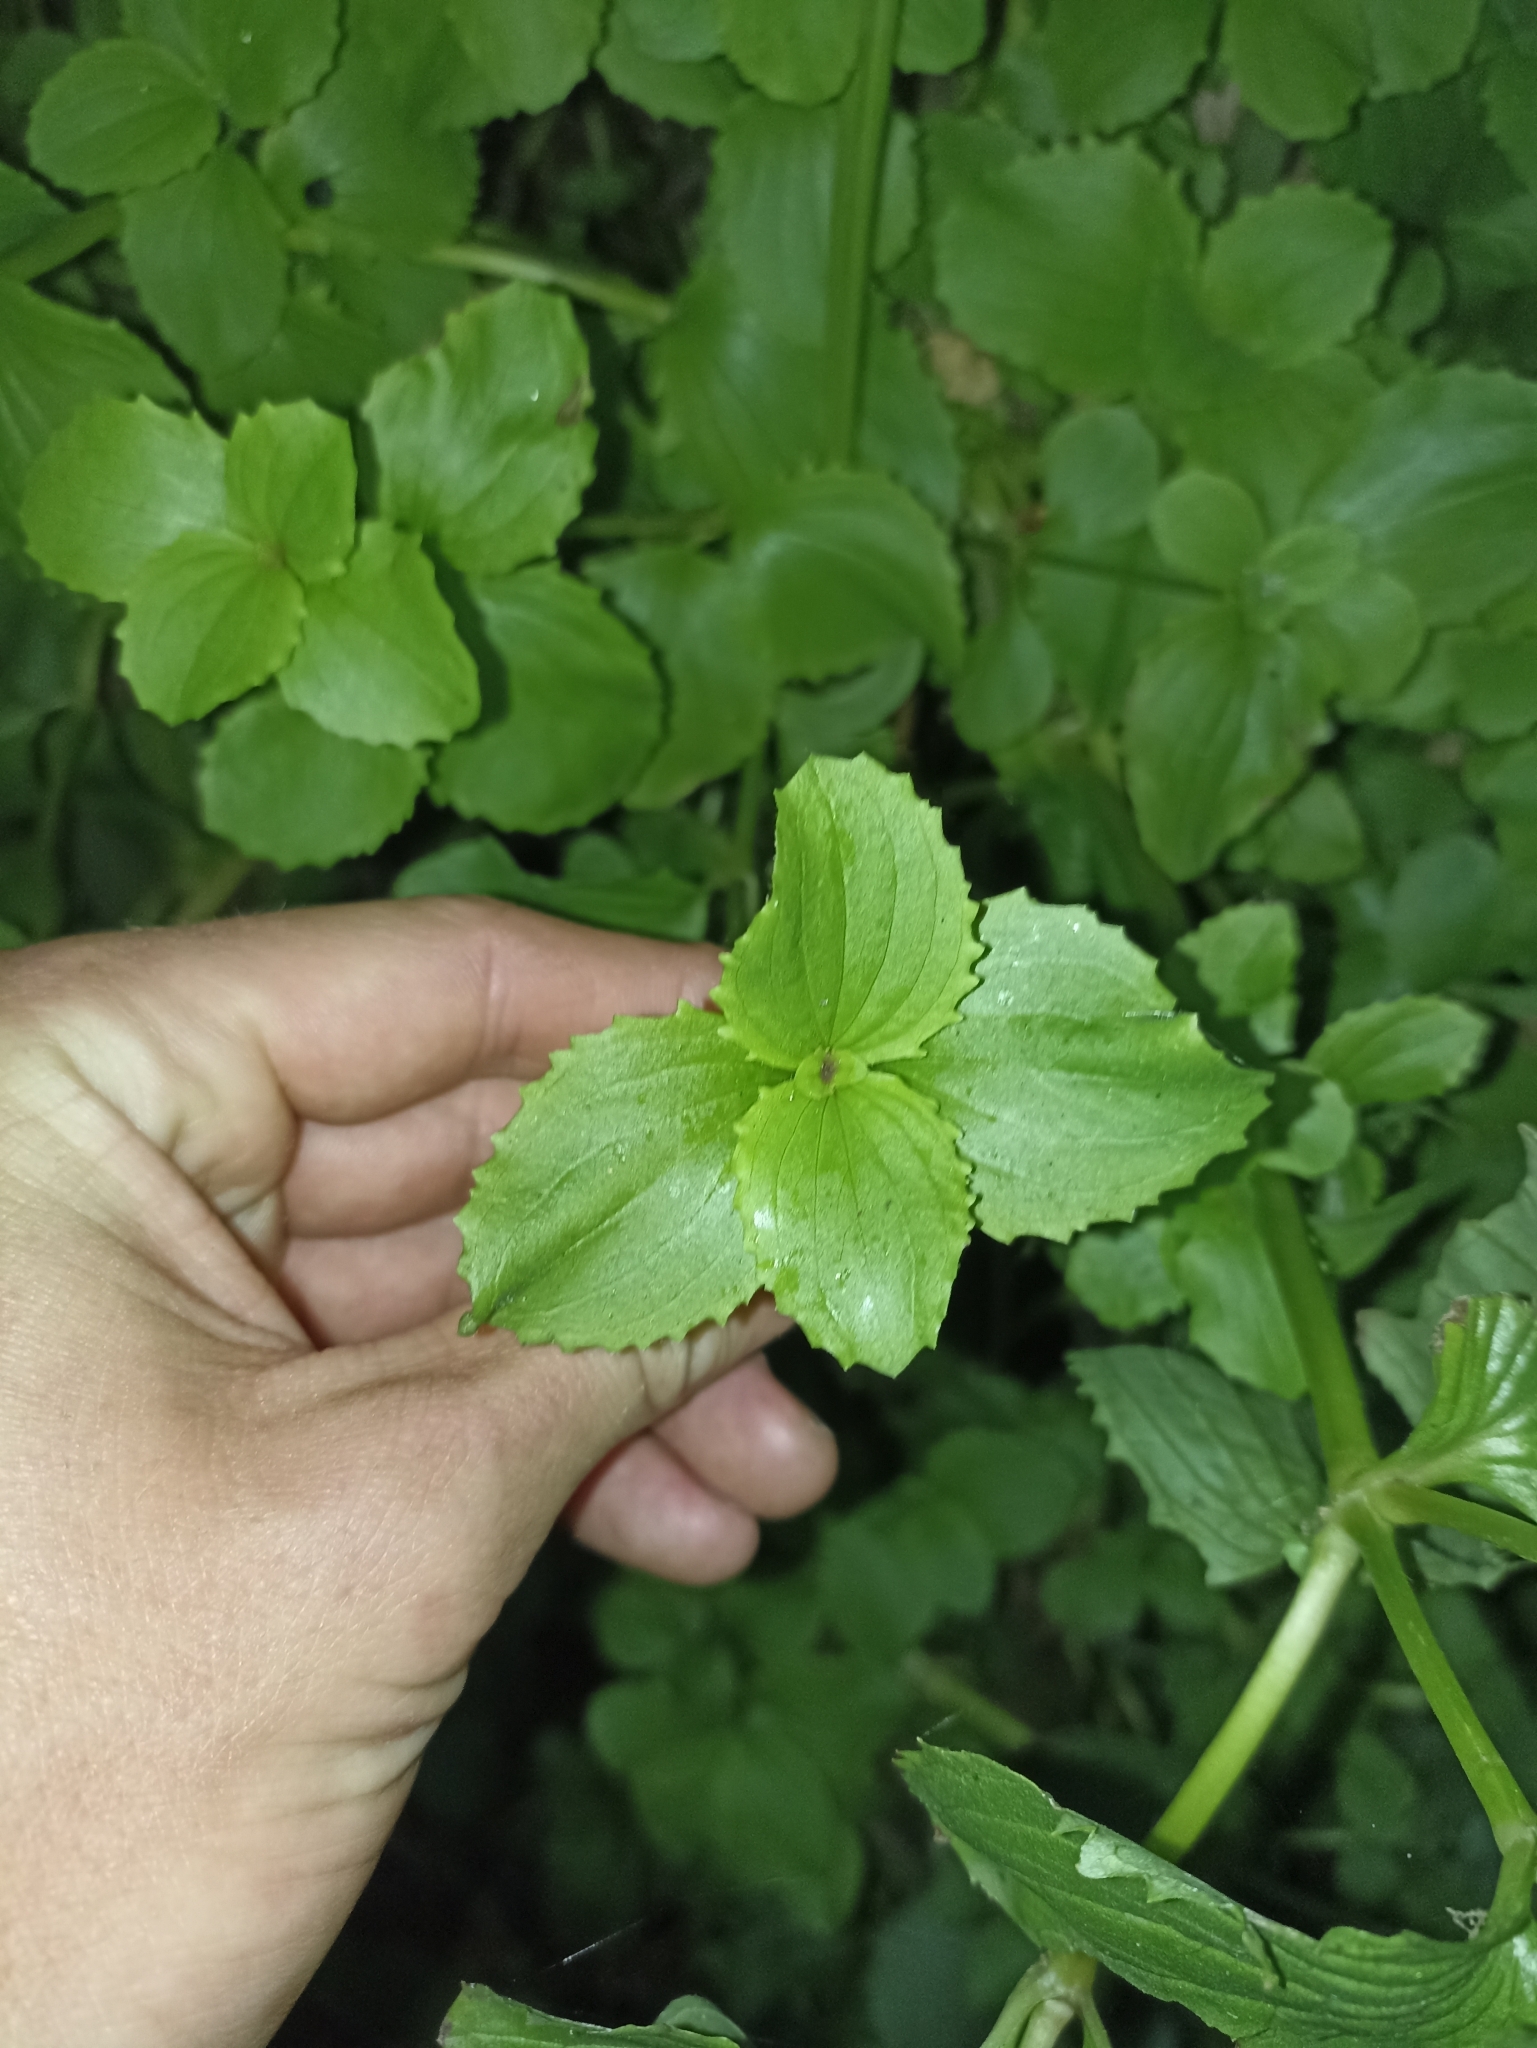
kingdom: Plantae
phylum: Tracheophyta
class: Magnoliopsida
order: Lamiales
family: Phrymaceae
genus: Erythranthe
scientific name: Erythranthe guttata
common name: Monkeyflower
